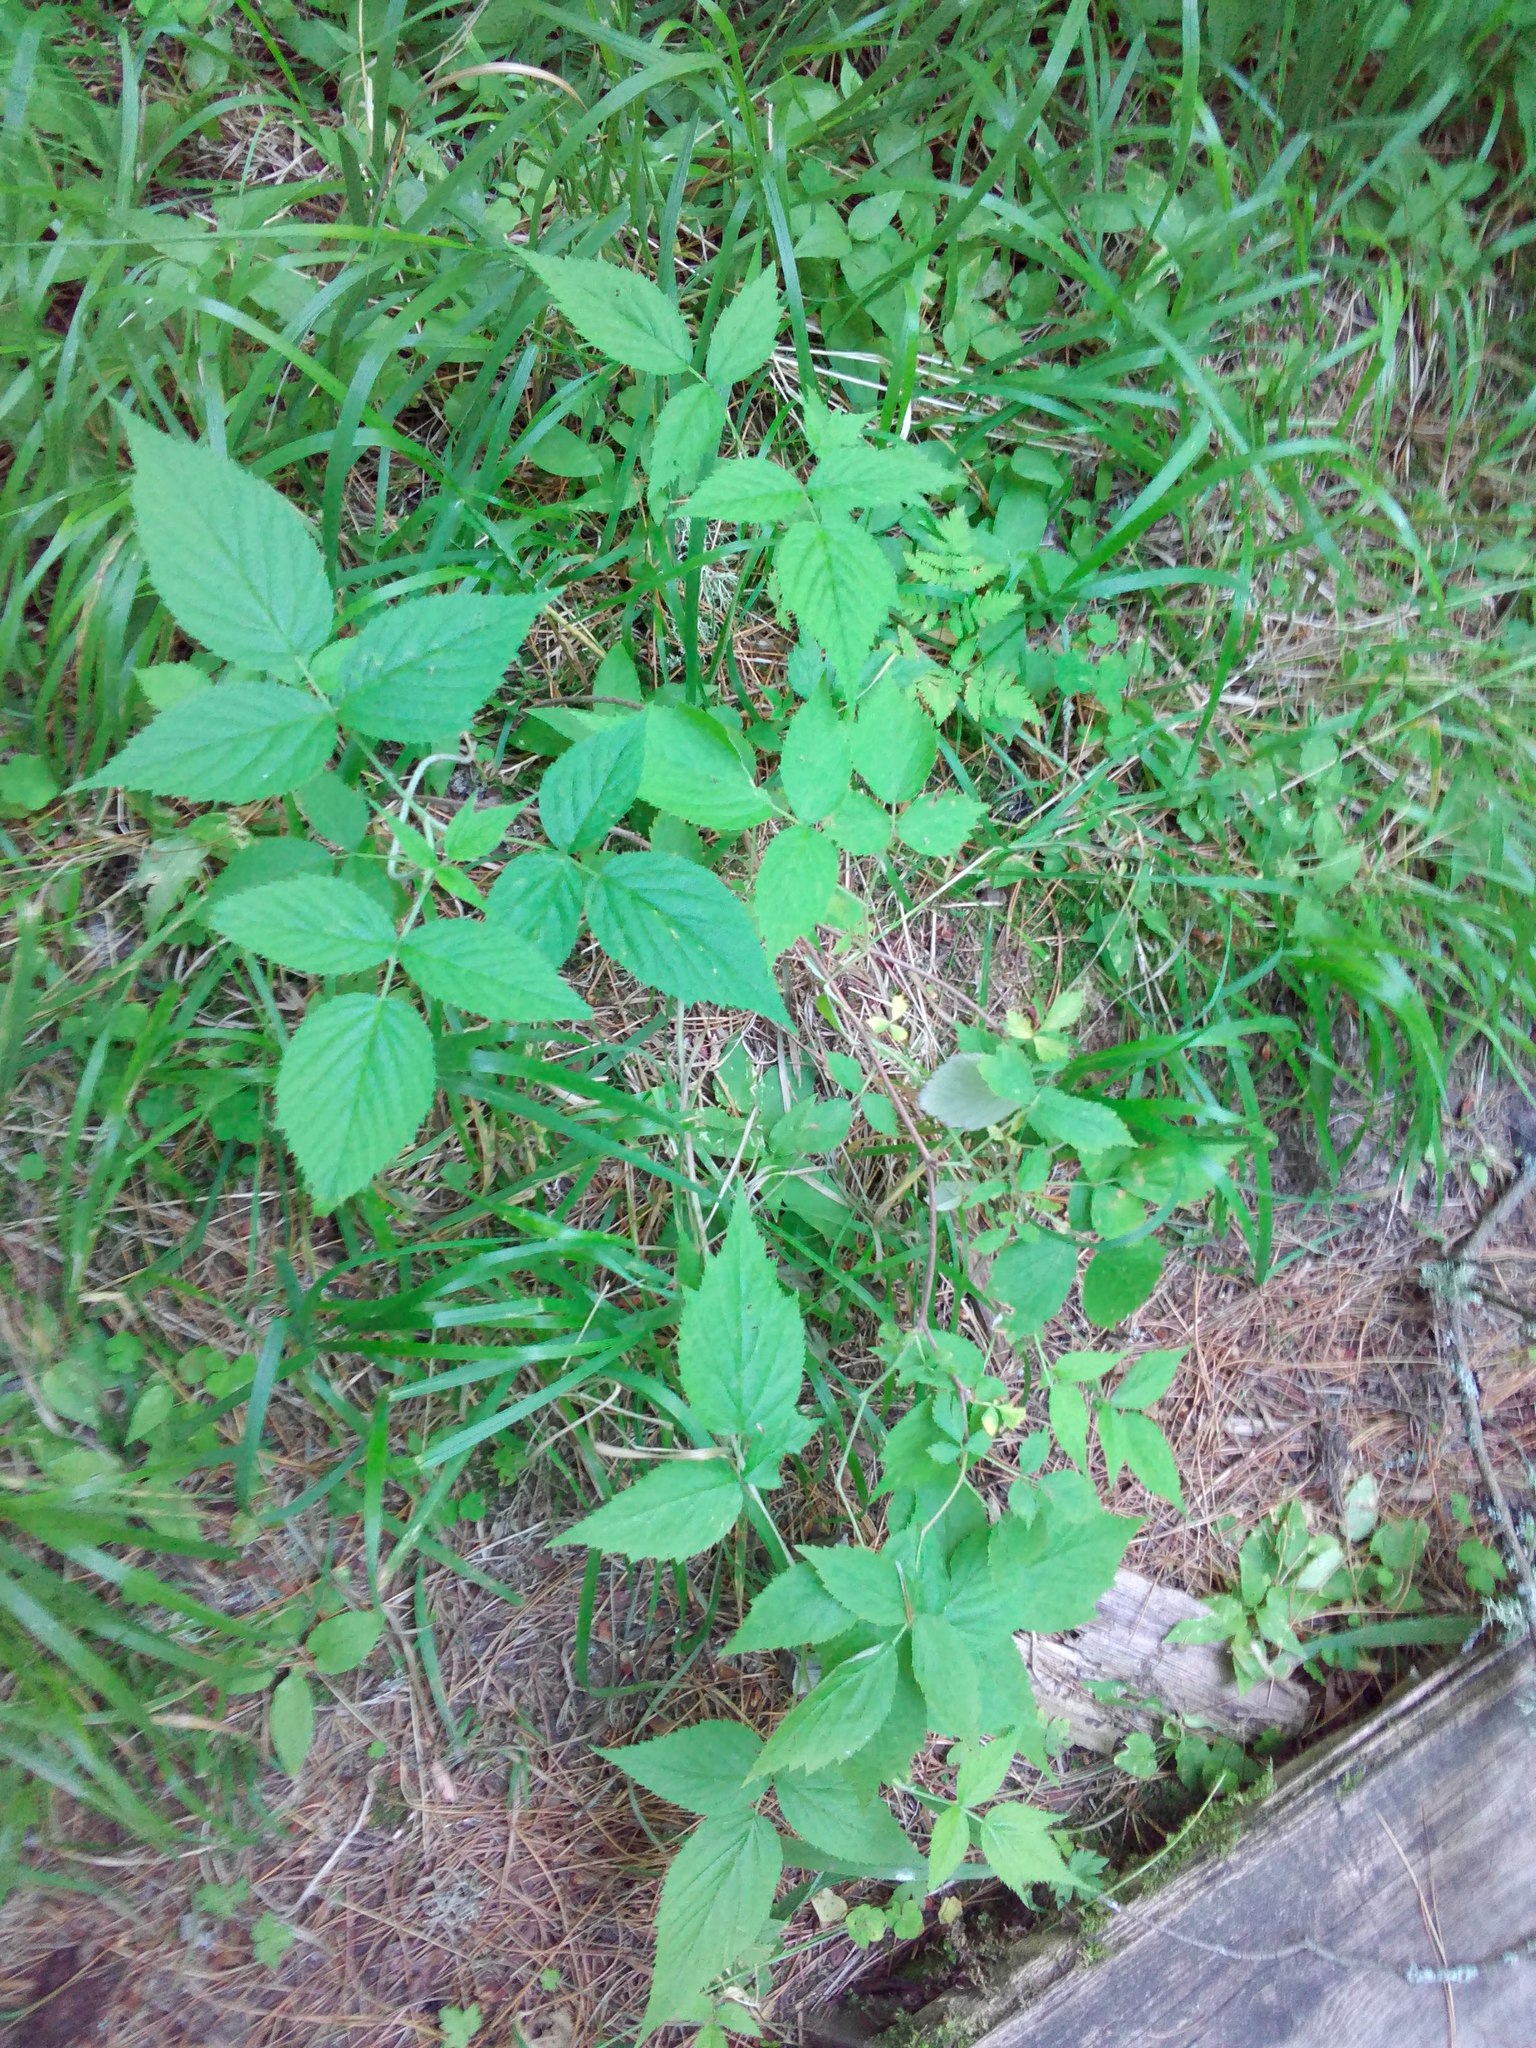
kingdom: Plantae
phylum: Tracheophyta
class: Magnoliopsida
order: Rosales
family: Rosaceae
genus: Rubus
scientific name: Rubus idaeus
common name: Raspberry
